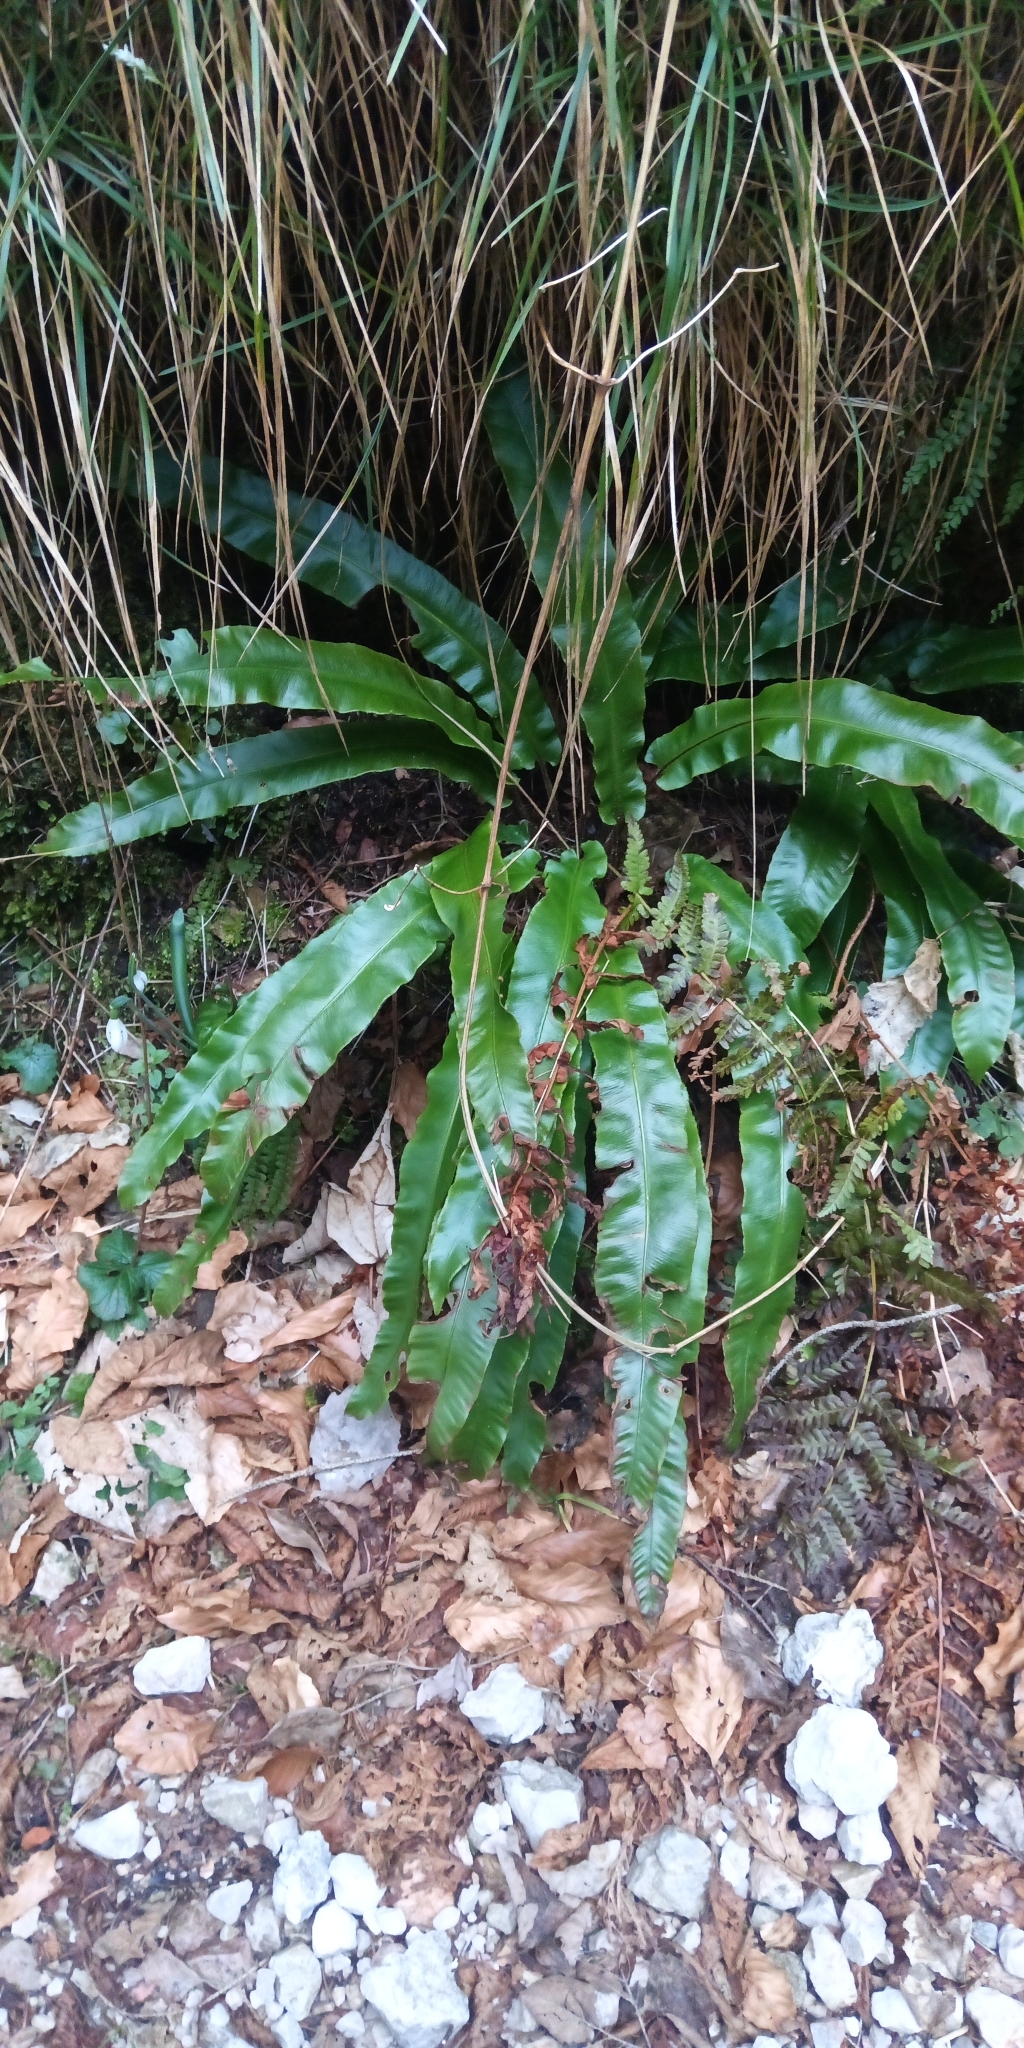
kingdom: Plantae
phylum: Tracheophyta
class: Polypodiopsida
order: Polypodiales
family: Aspleniaceae
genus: Asplenium
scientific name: Asplenium scolopendrium
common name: Hart's-tongue fern
